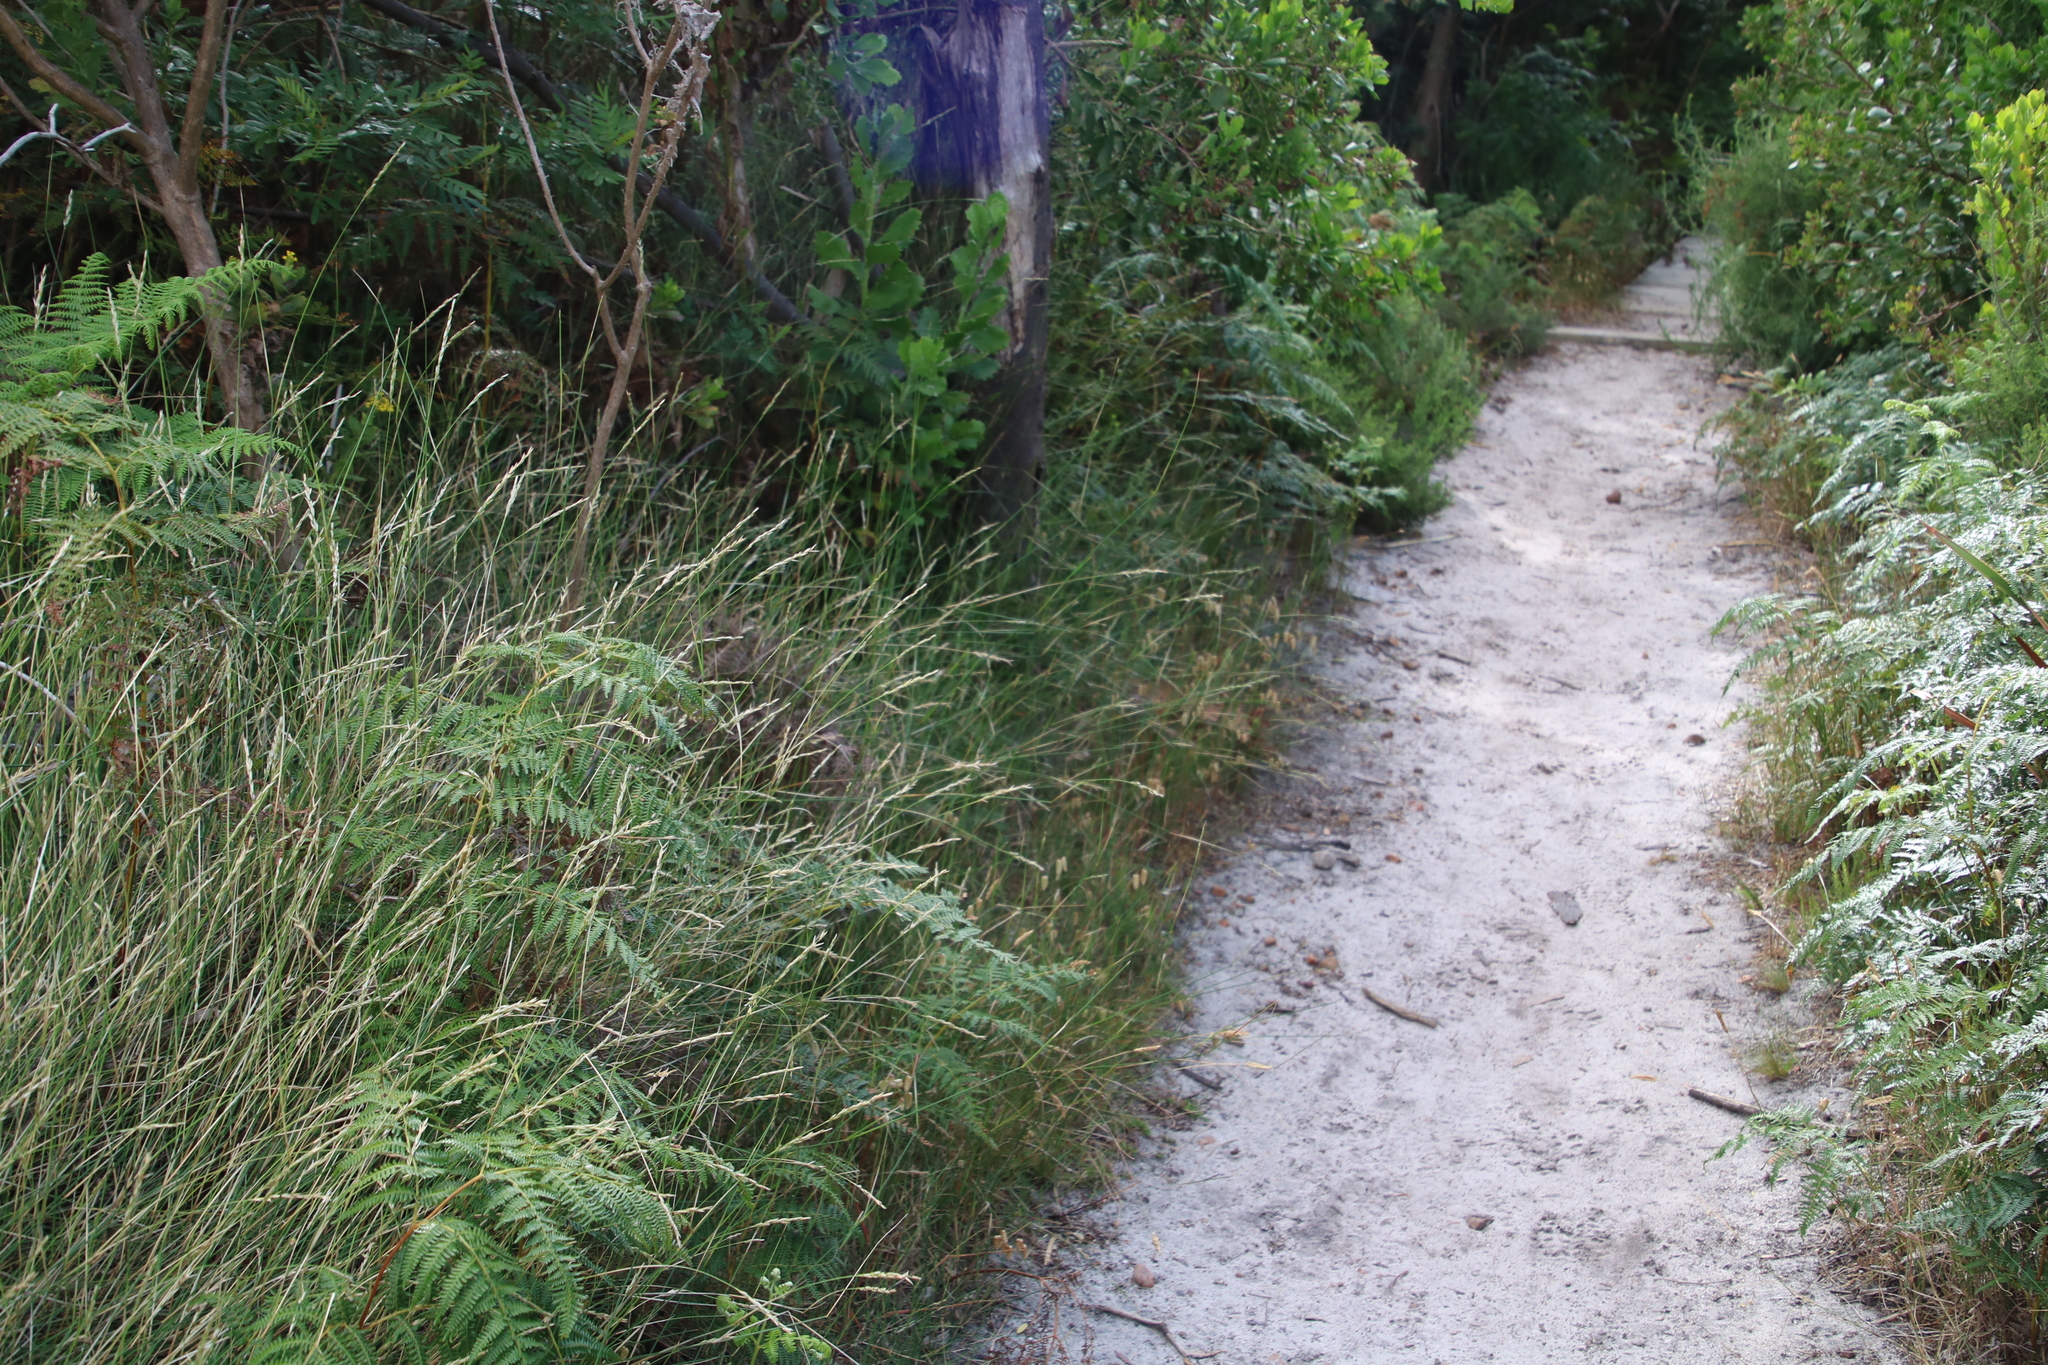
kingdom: Plantae
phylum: Tracheophyta
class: Liliopsida
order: Poales
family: Poaceae
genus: Briza
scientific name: Briza maxima
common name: Big quakinggrass
